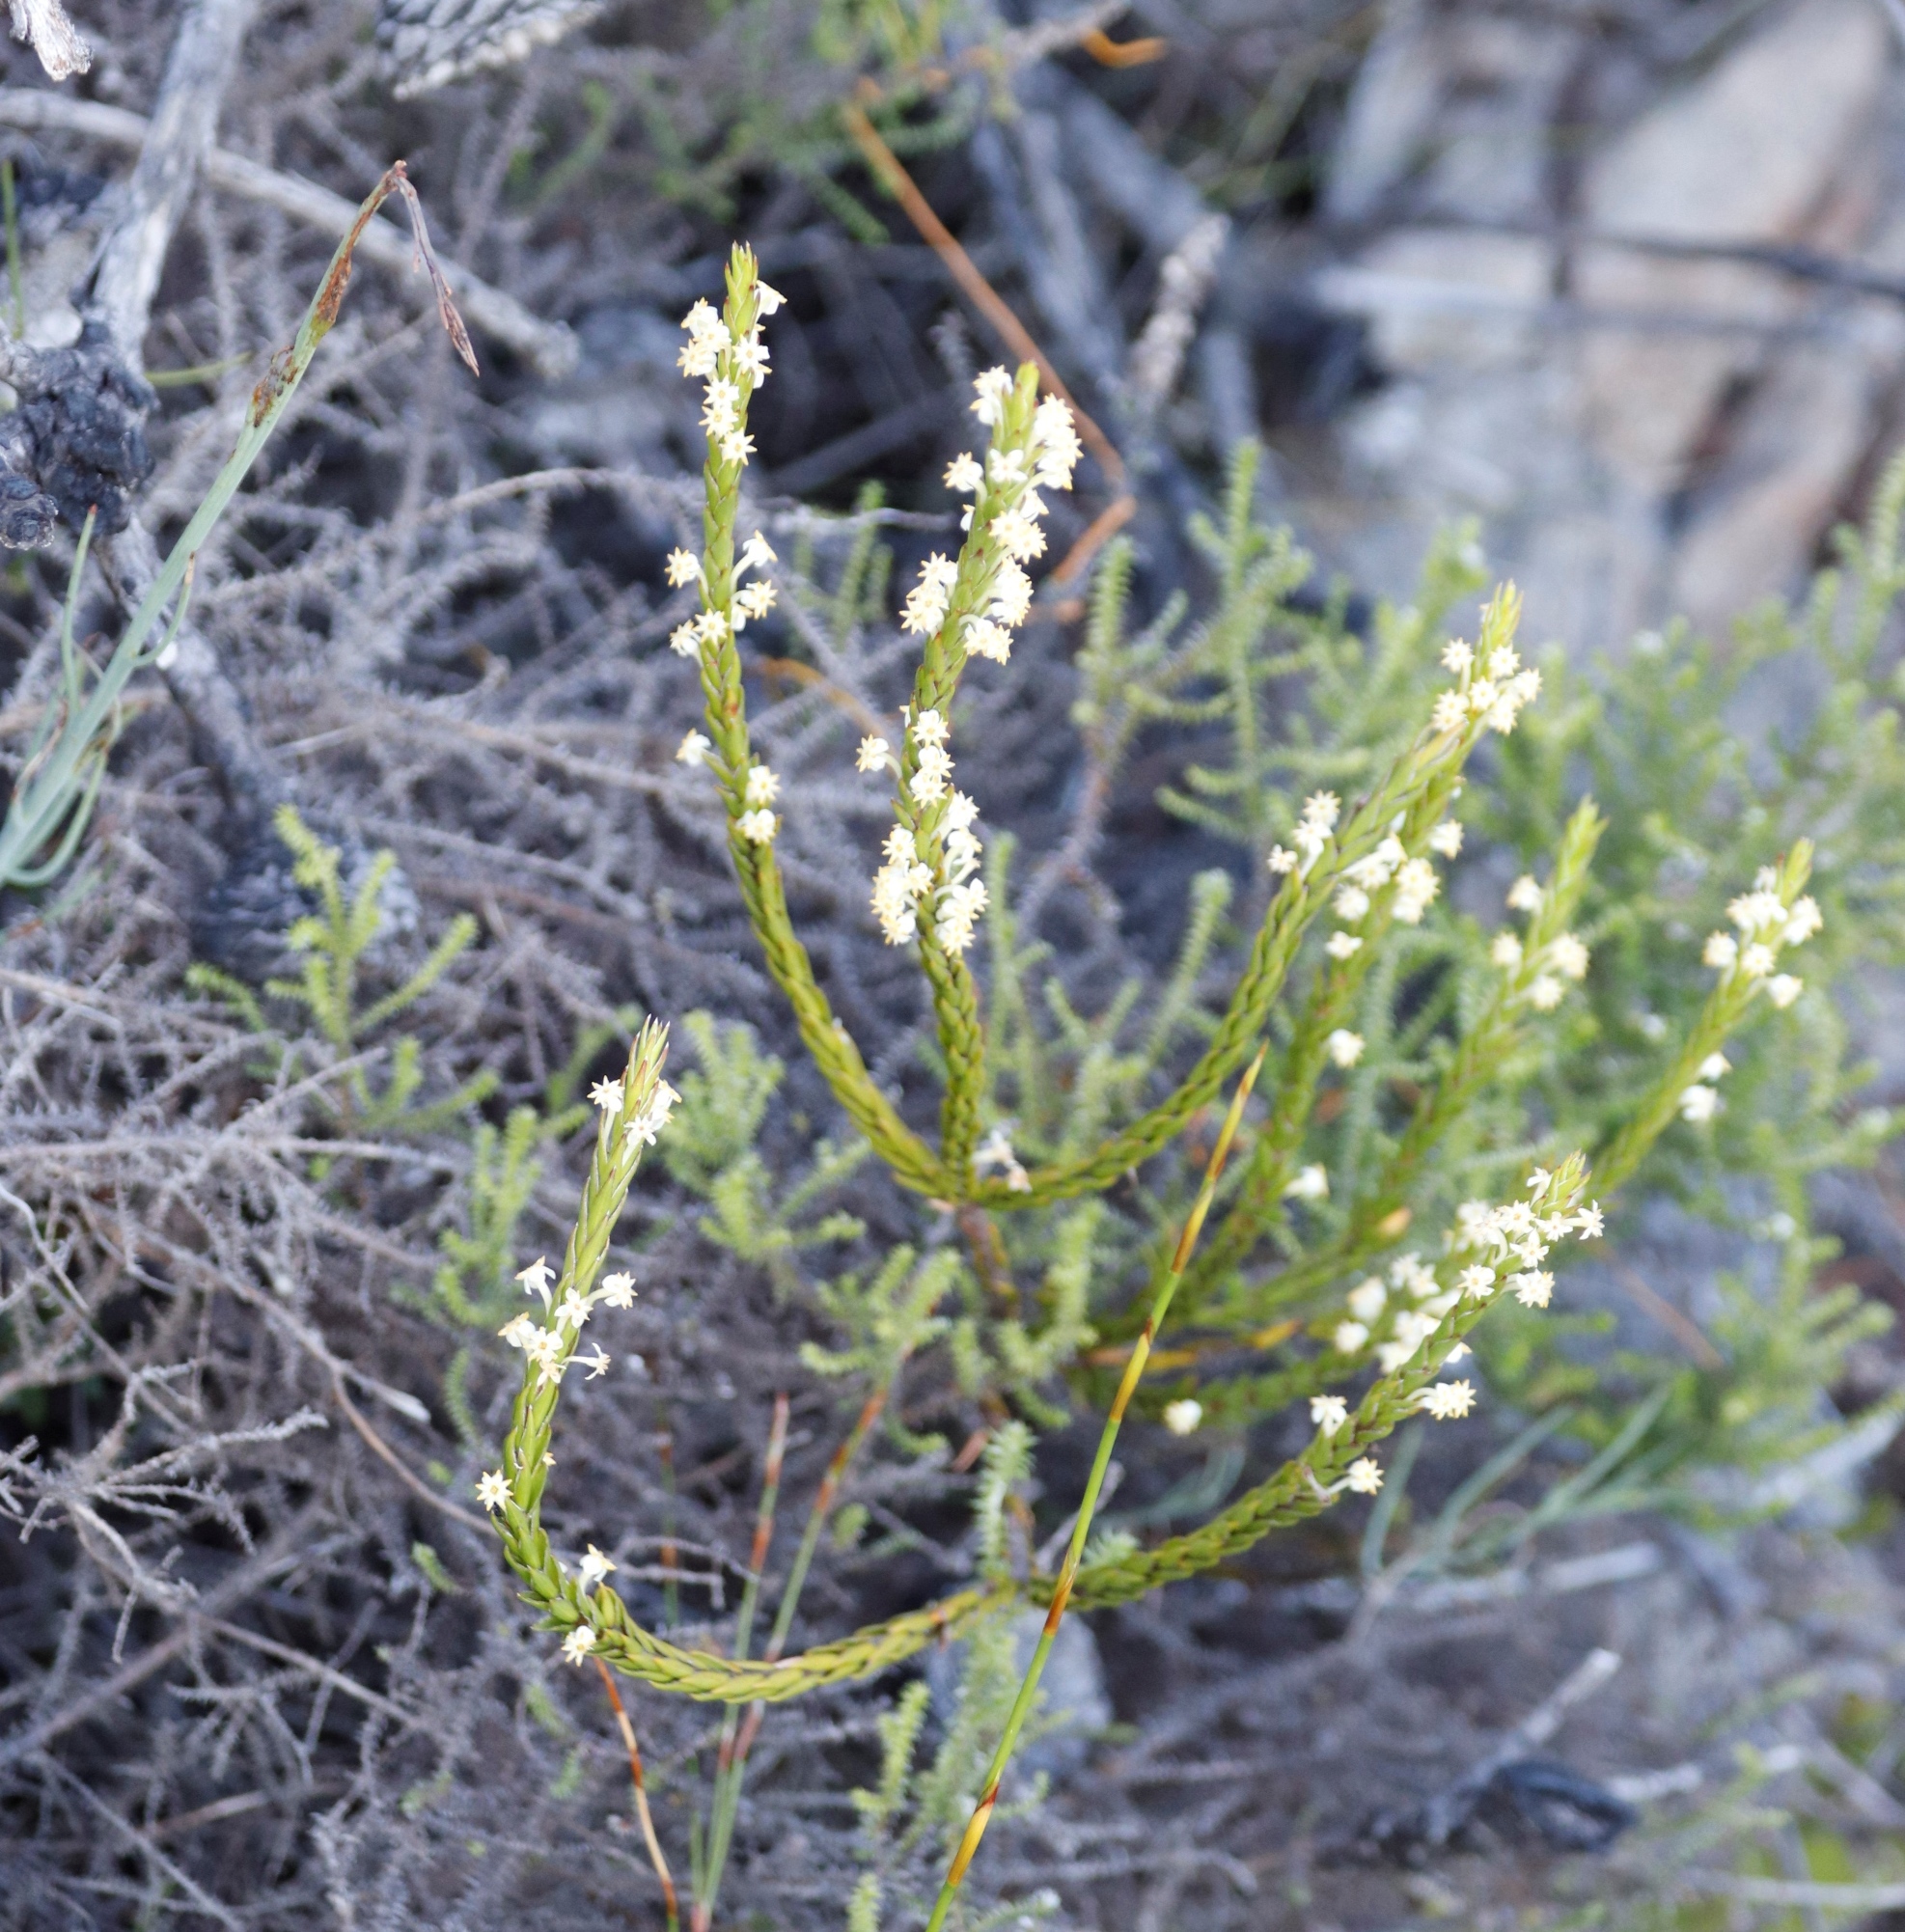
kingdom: Plantae
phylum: Tracheophyta
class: Magnoliopsida
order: Malvales
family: Thymelaeaceae
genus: Struthiola
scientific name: Struthiola ciliata
